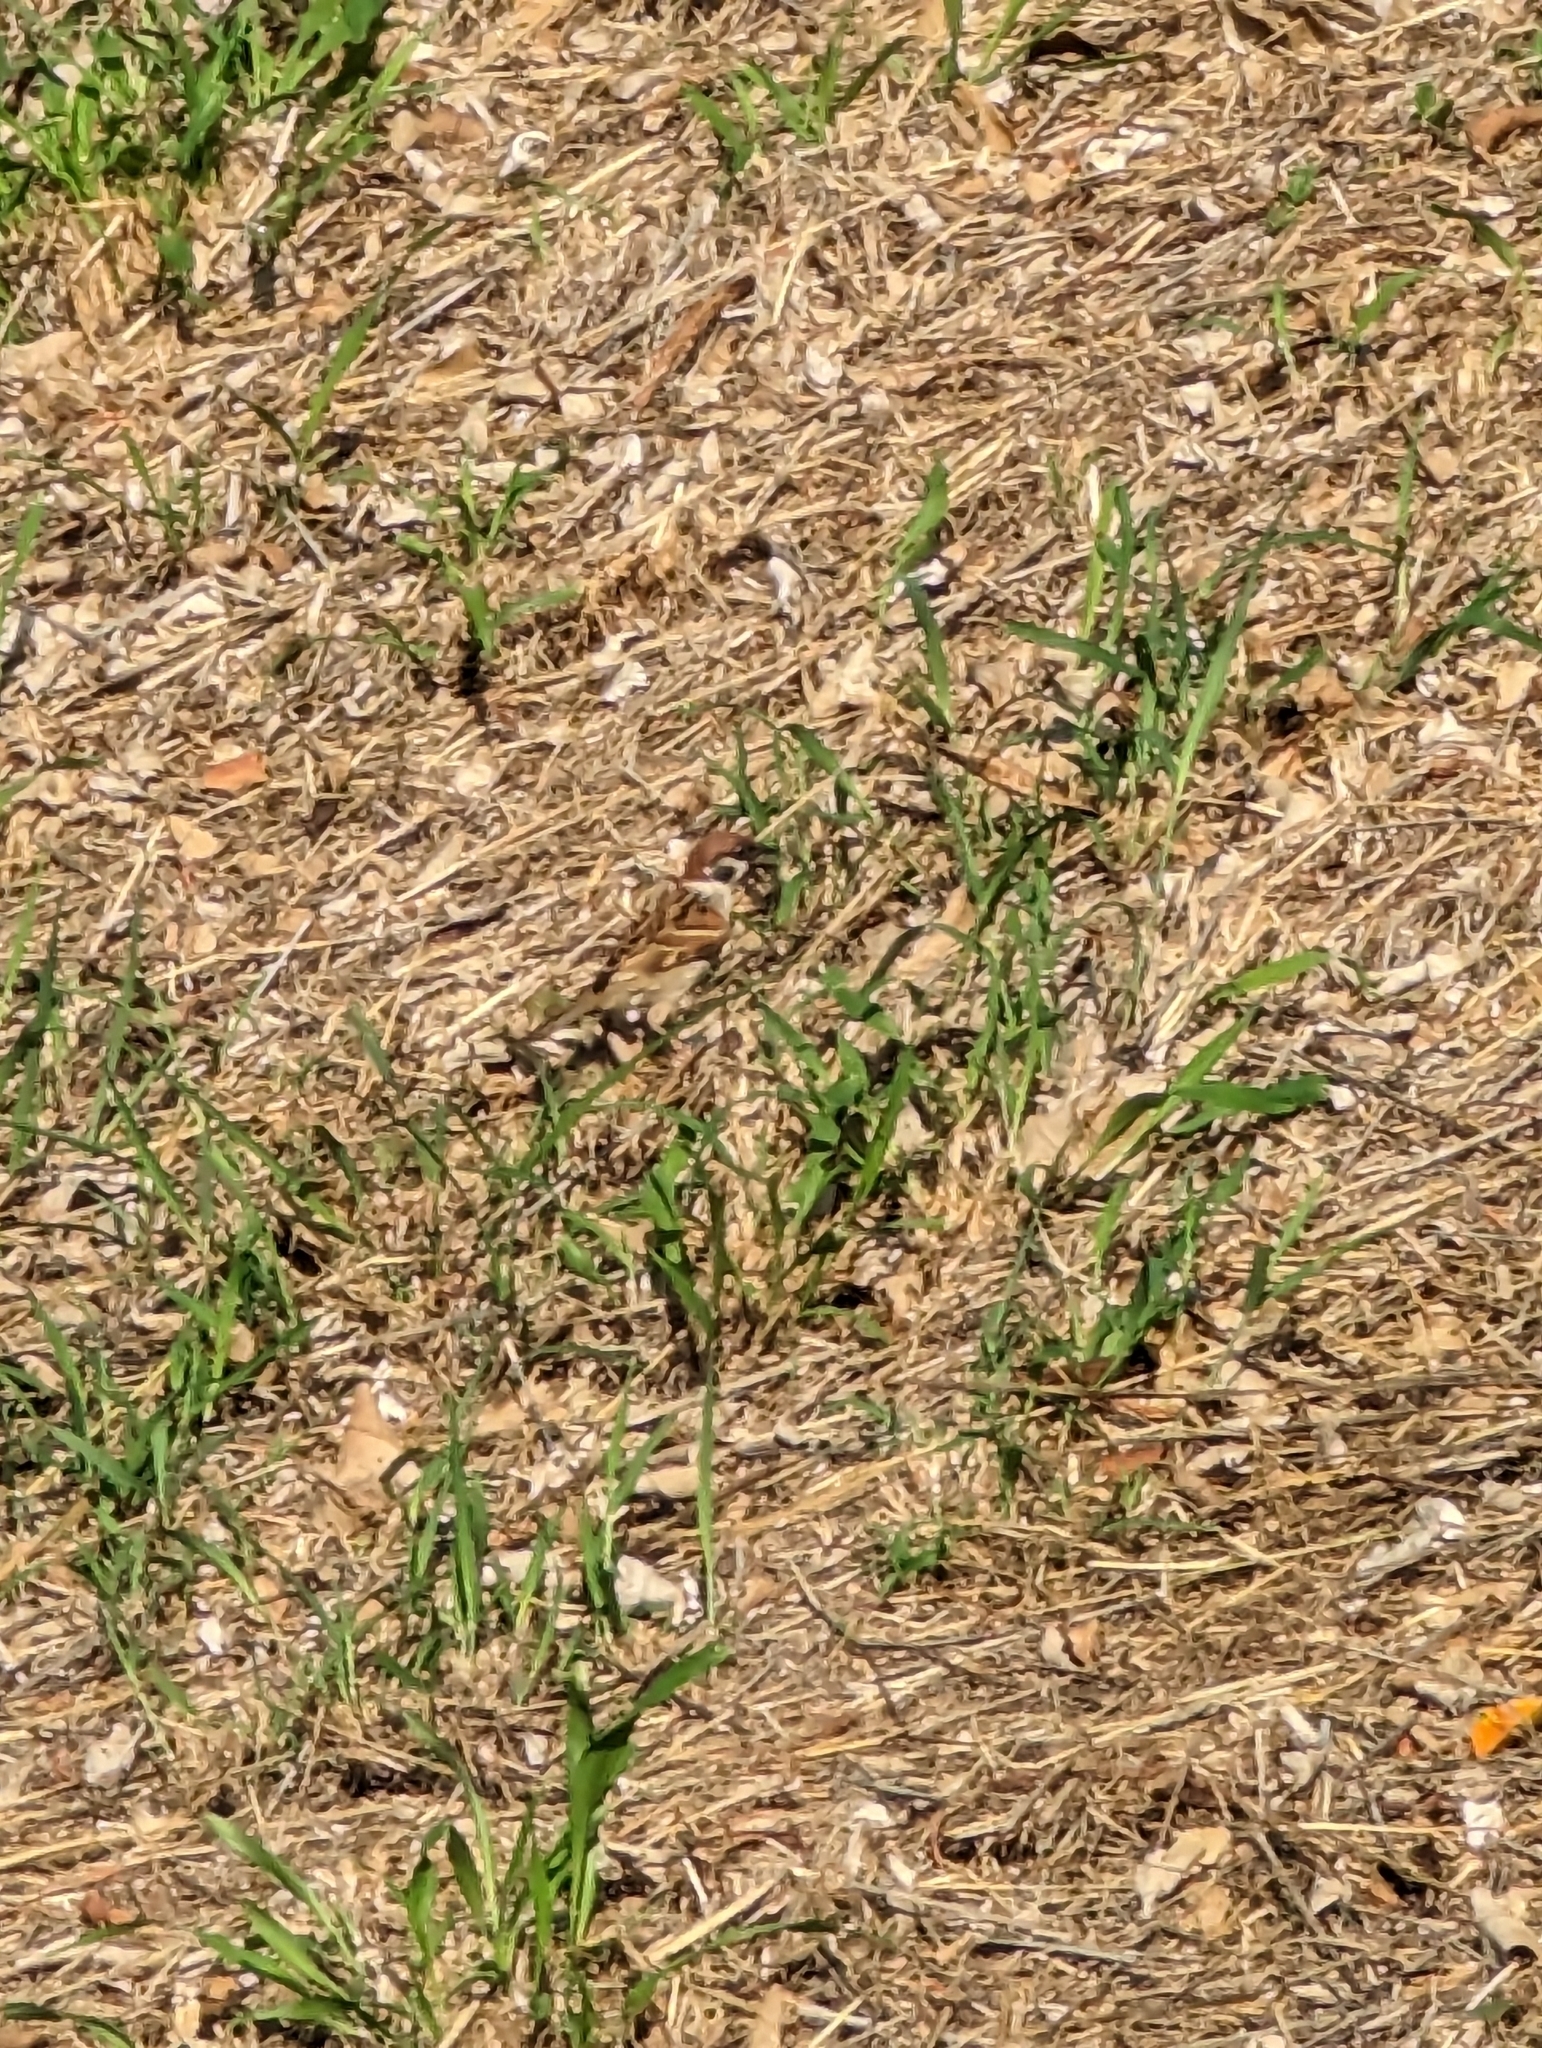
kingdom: Animalia
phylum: Chordata
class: Aves
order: Passeriformes
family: Passeridae
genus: Passer
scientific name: Passer montanus
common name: Eurasian tree sparrow
